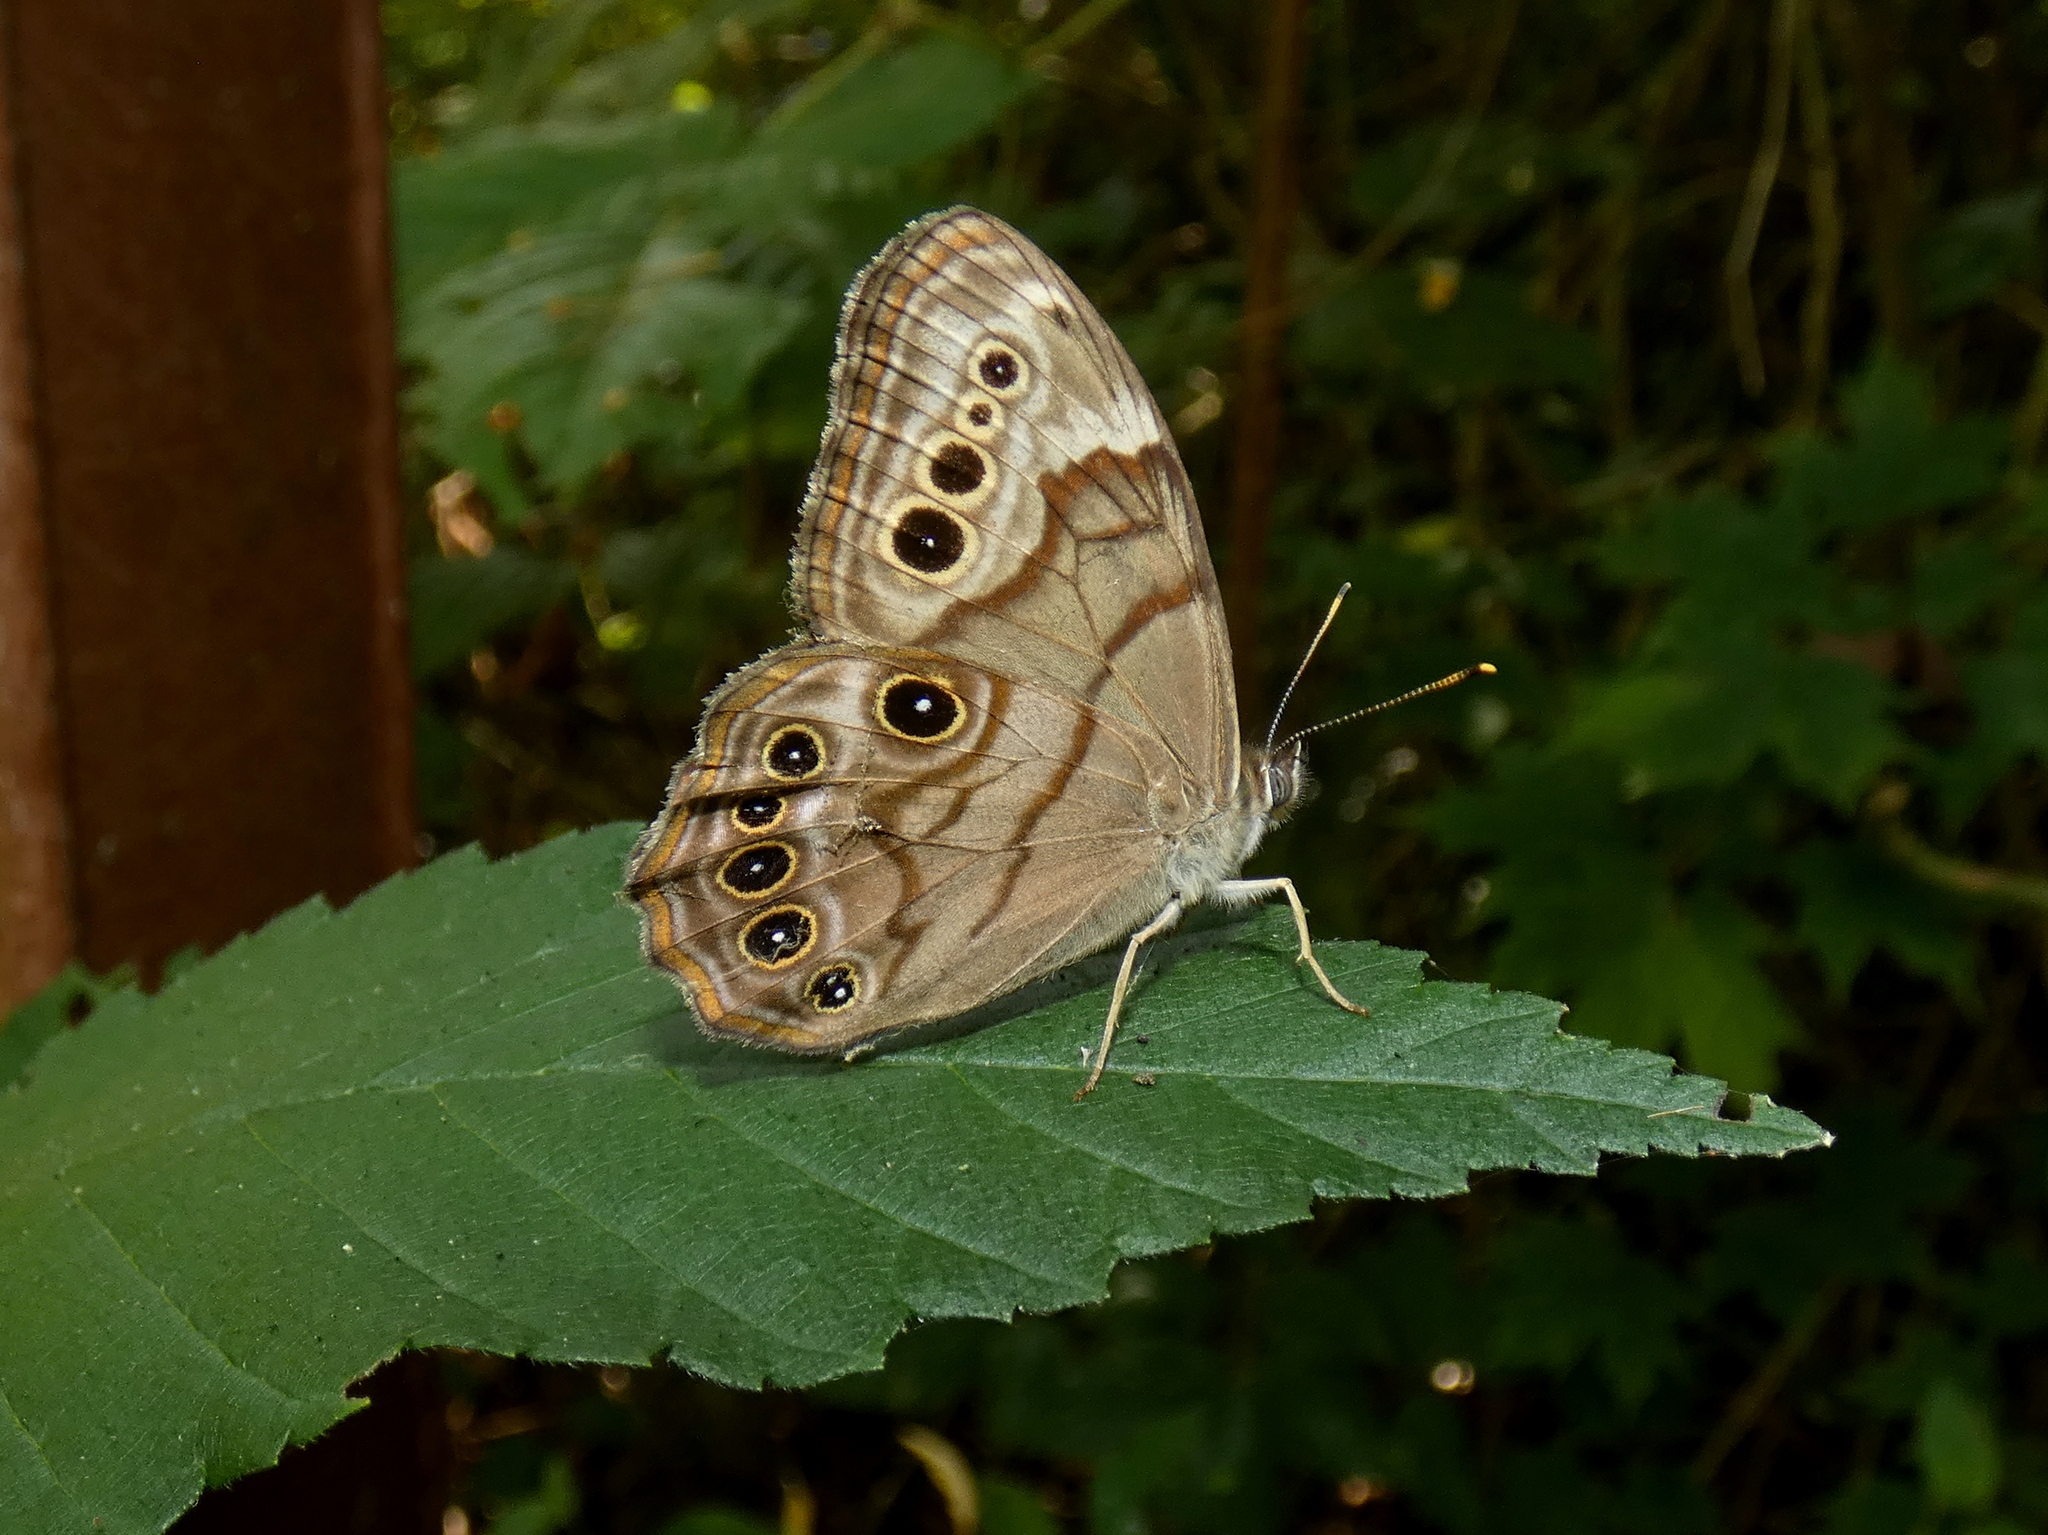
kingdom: Animalia
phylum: Arthropoda
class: Insecta
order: Lepidoptera
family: Nymphalidae
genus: Lethe
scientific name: Lethe anthedon
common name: Northern pearly-eye
